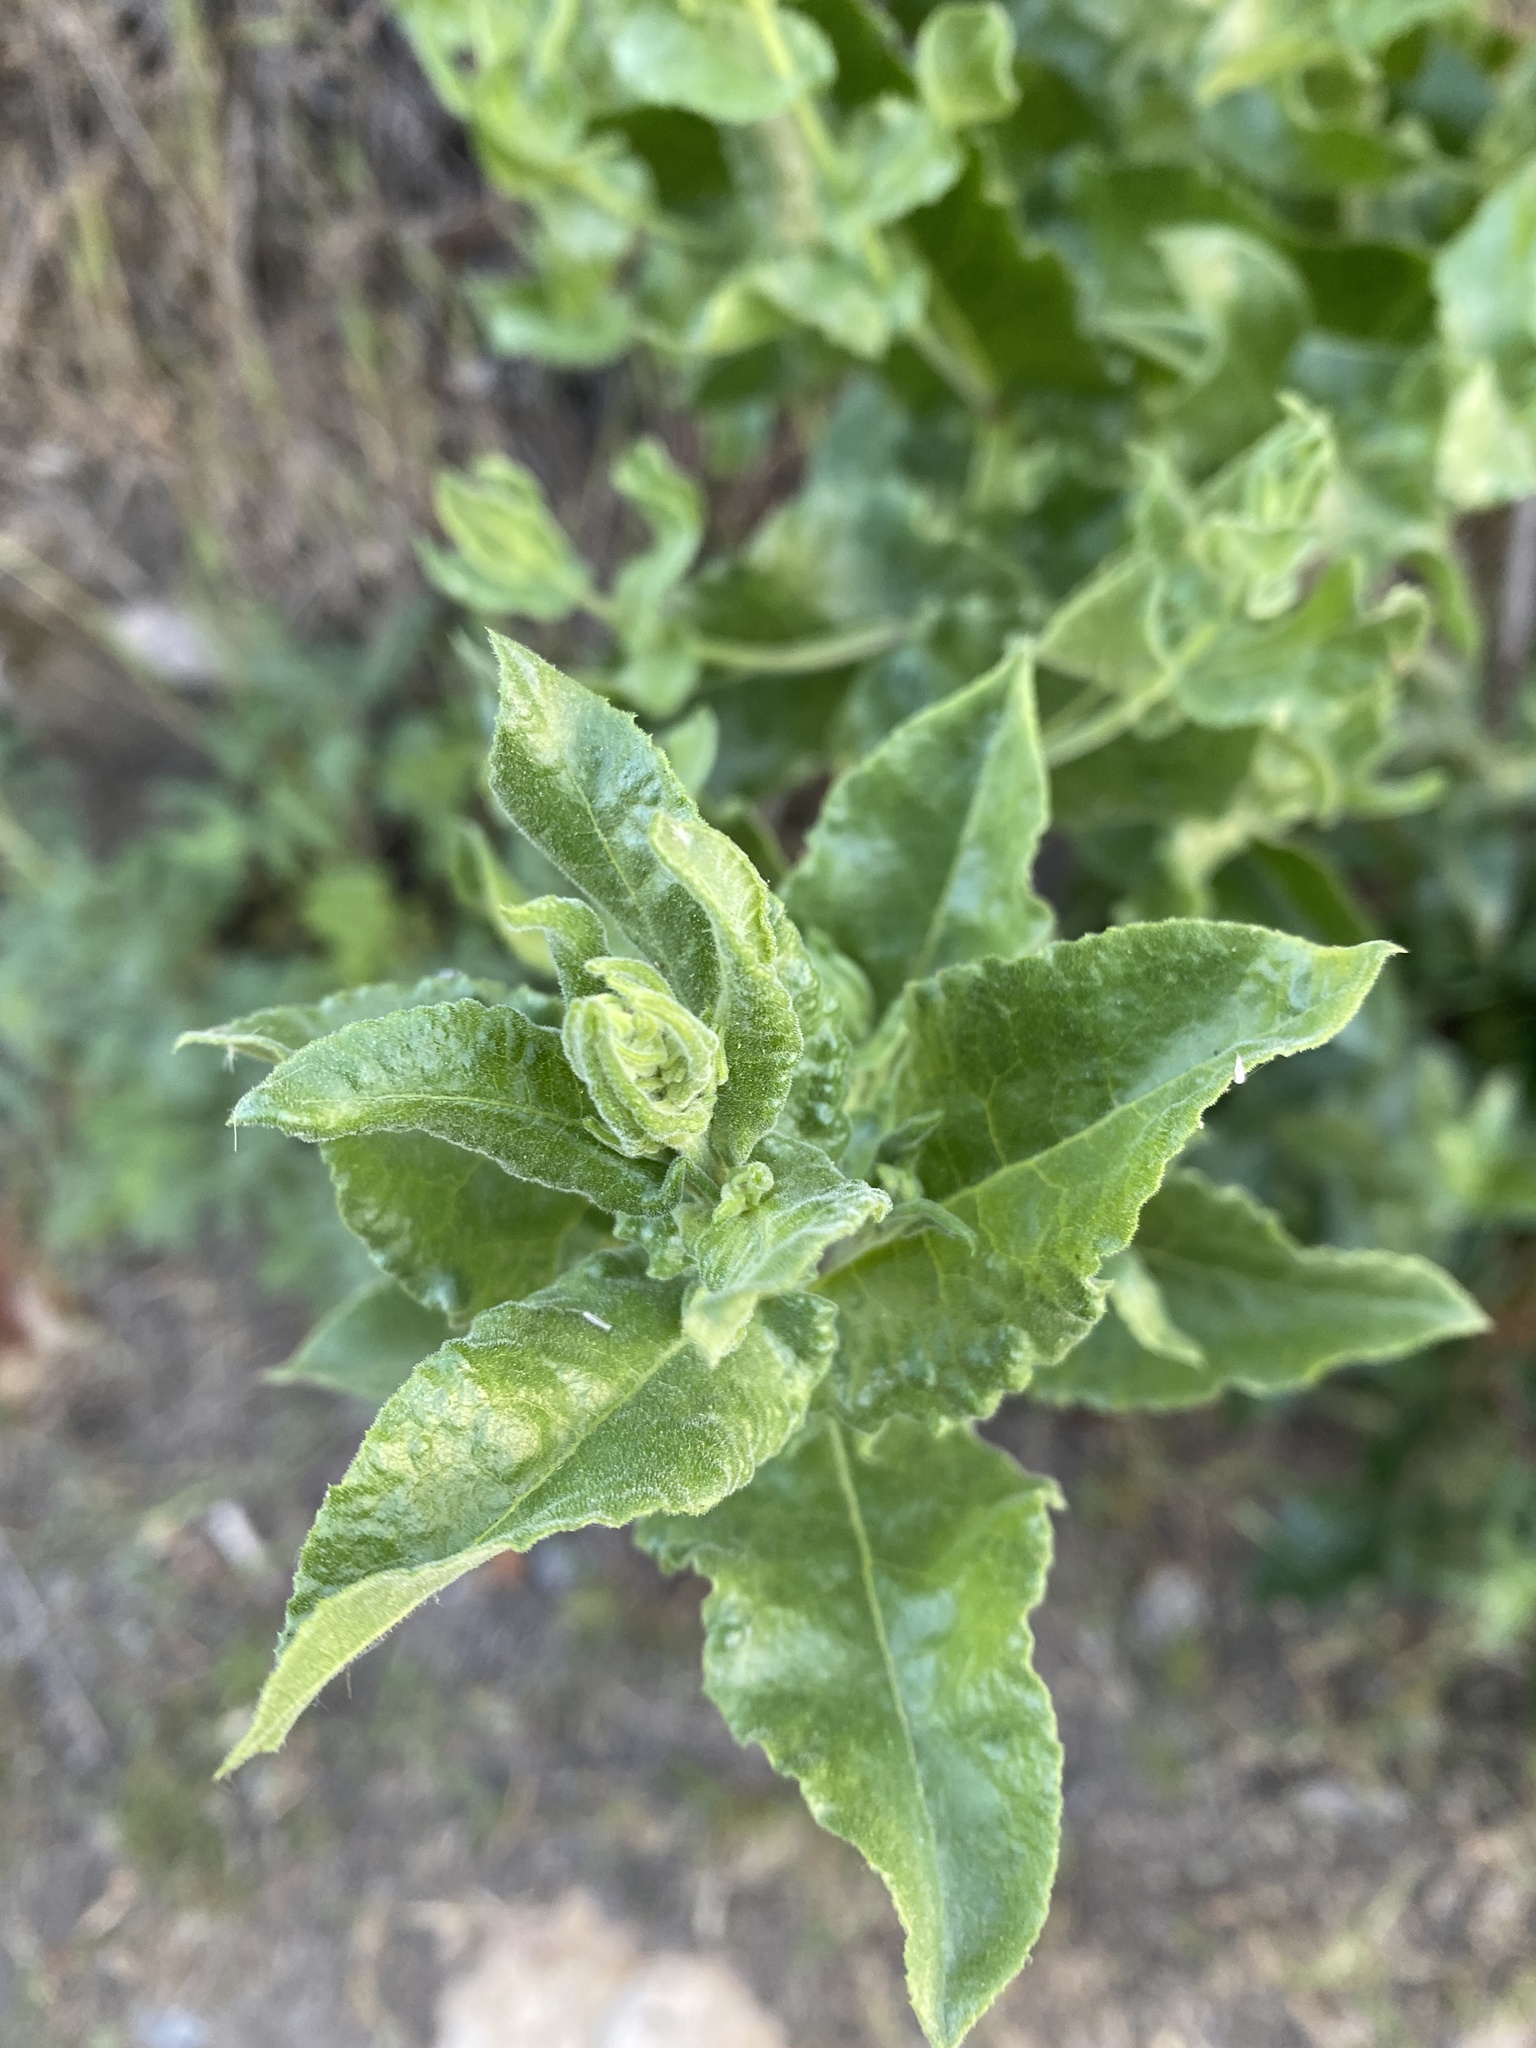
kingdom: Plantae
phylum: Tracheophyta
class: Magnoliopsida
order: Asterales
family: Asteraceae
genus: Acourtia
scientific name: Acourtia microcephala
